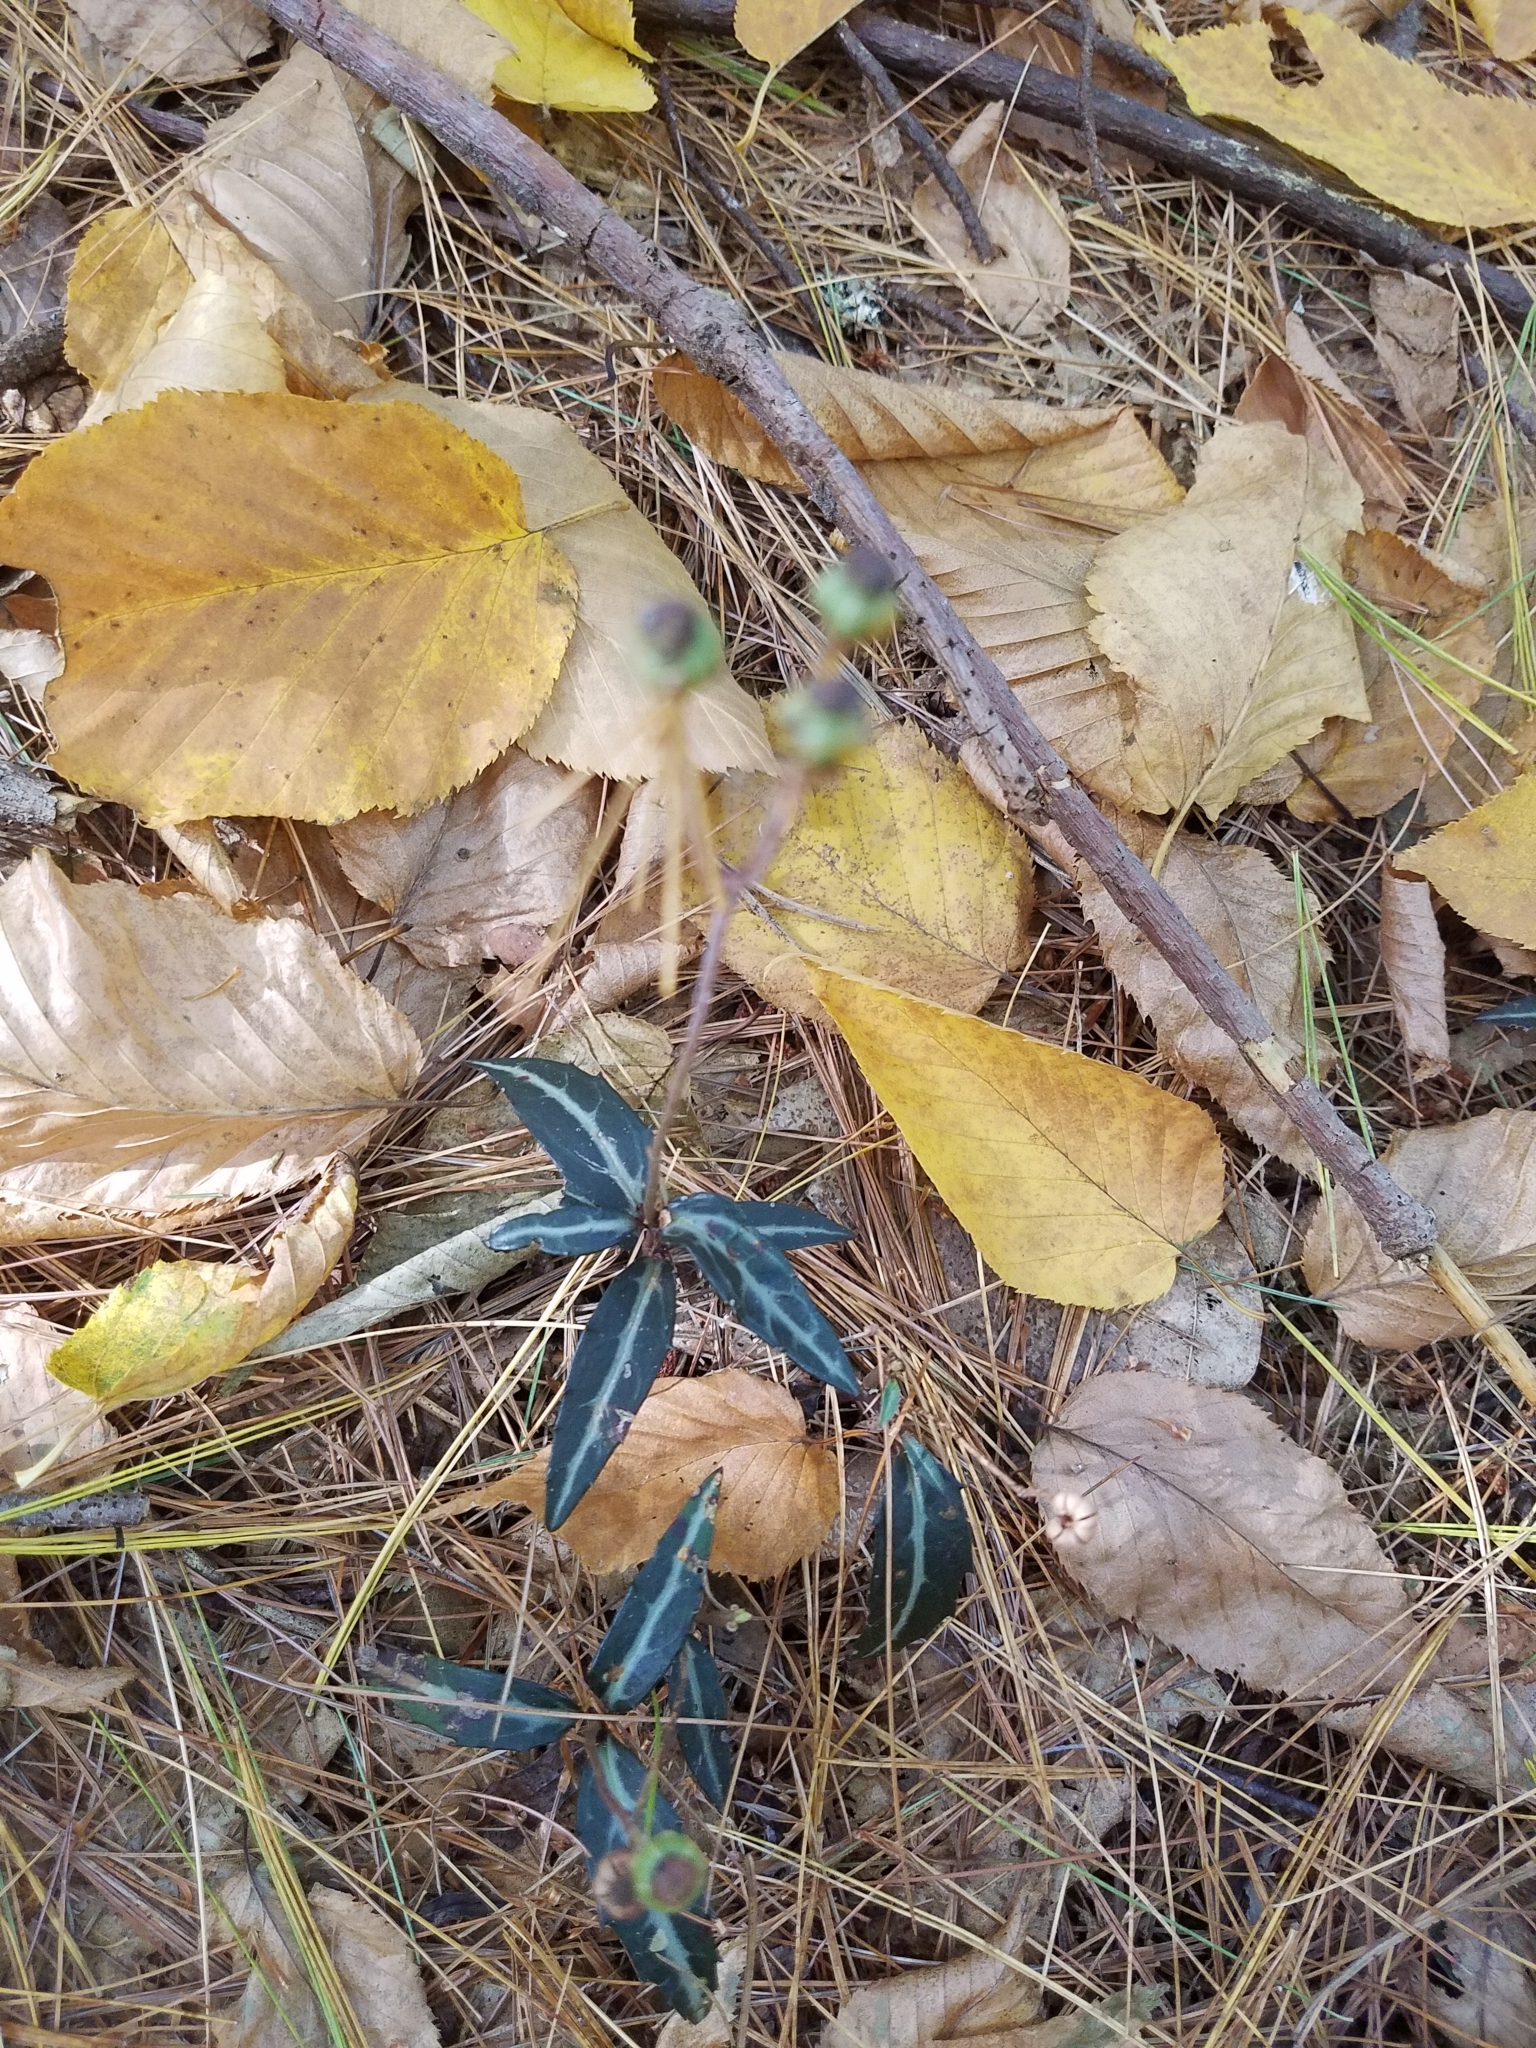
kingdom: Plantae
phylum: Tracheophyta
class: Magnoliopsida
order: Ericales
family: Ericaceae
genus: Chimaphila
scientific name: Chimaphila maculata
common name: Spotted pipsissewa
